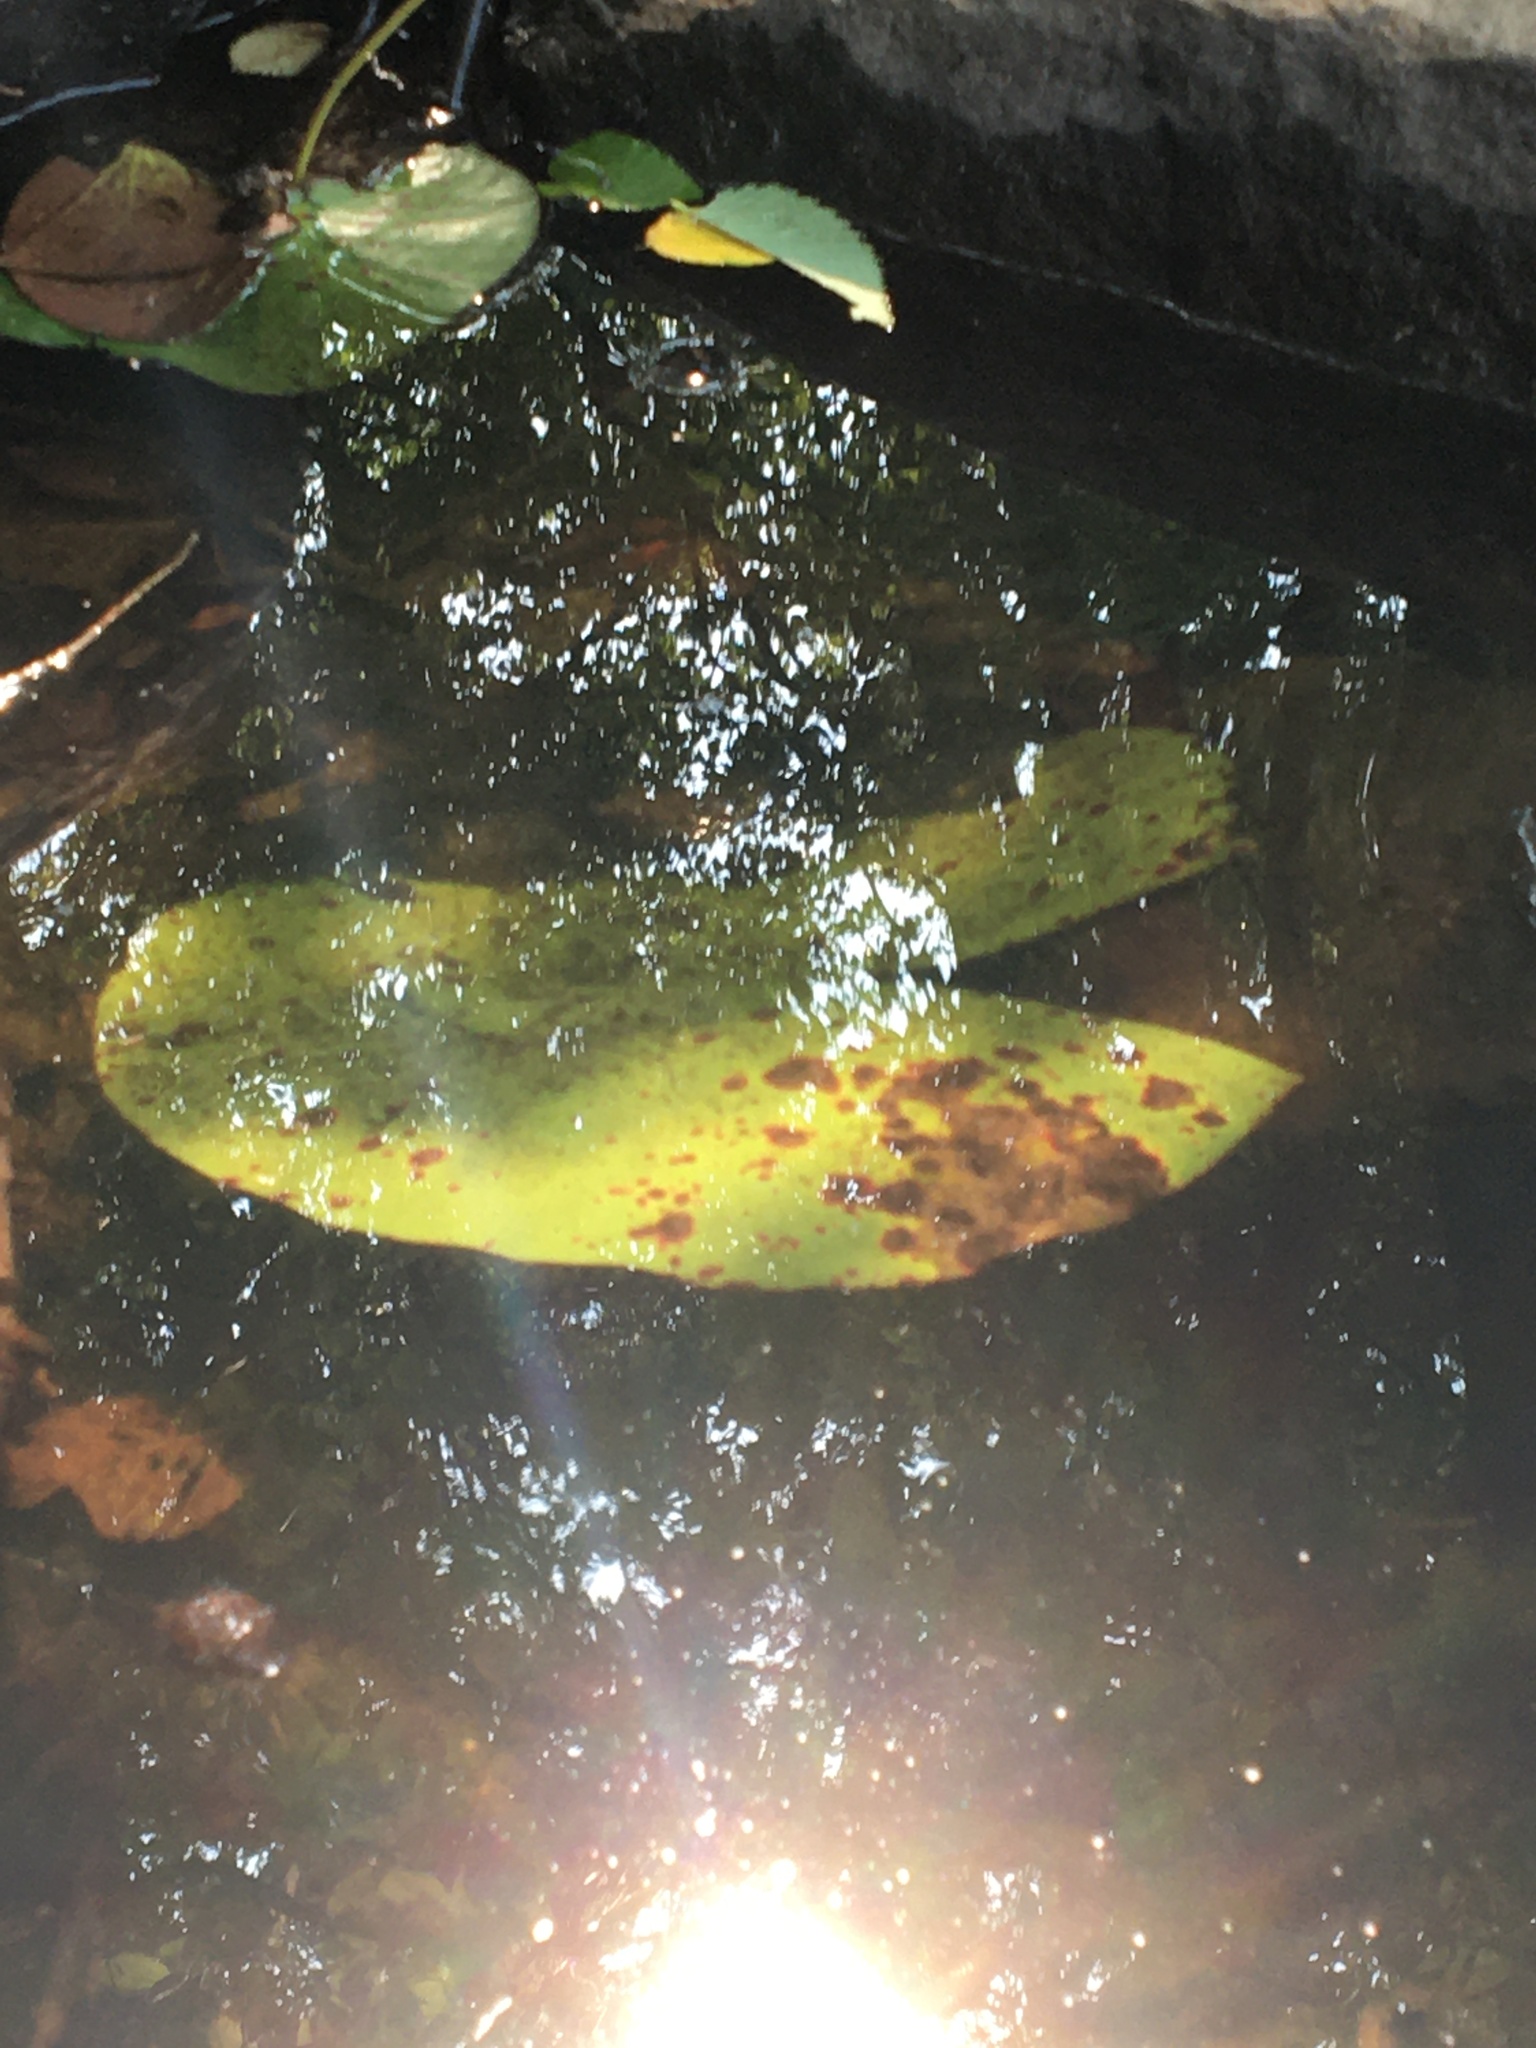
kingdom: Plantae
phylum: Tracheophyta
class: Magnoliopsida
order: Nymphaeales
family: Nymphaeaceae
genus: Nymphaea
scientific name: Nymphaea odorata
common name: Fragrant water-lily
